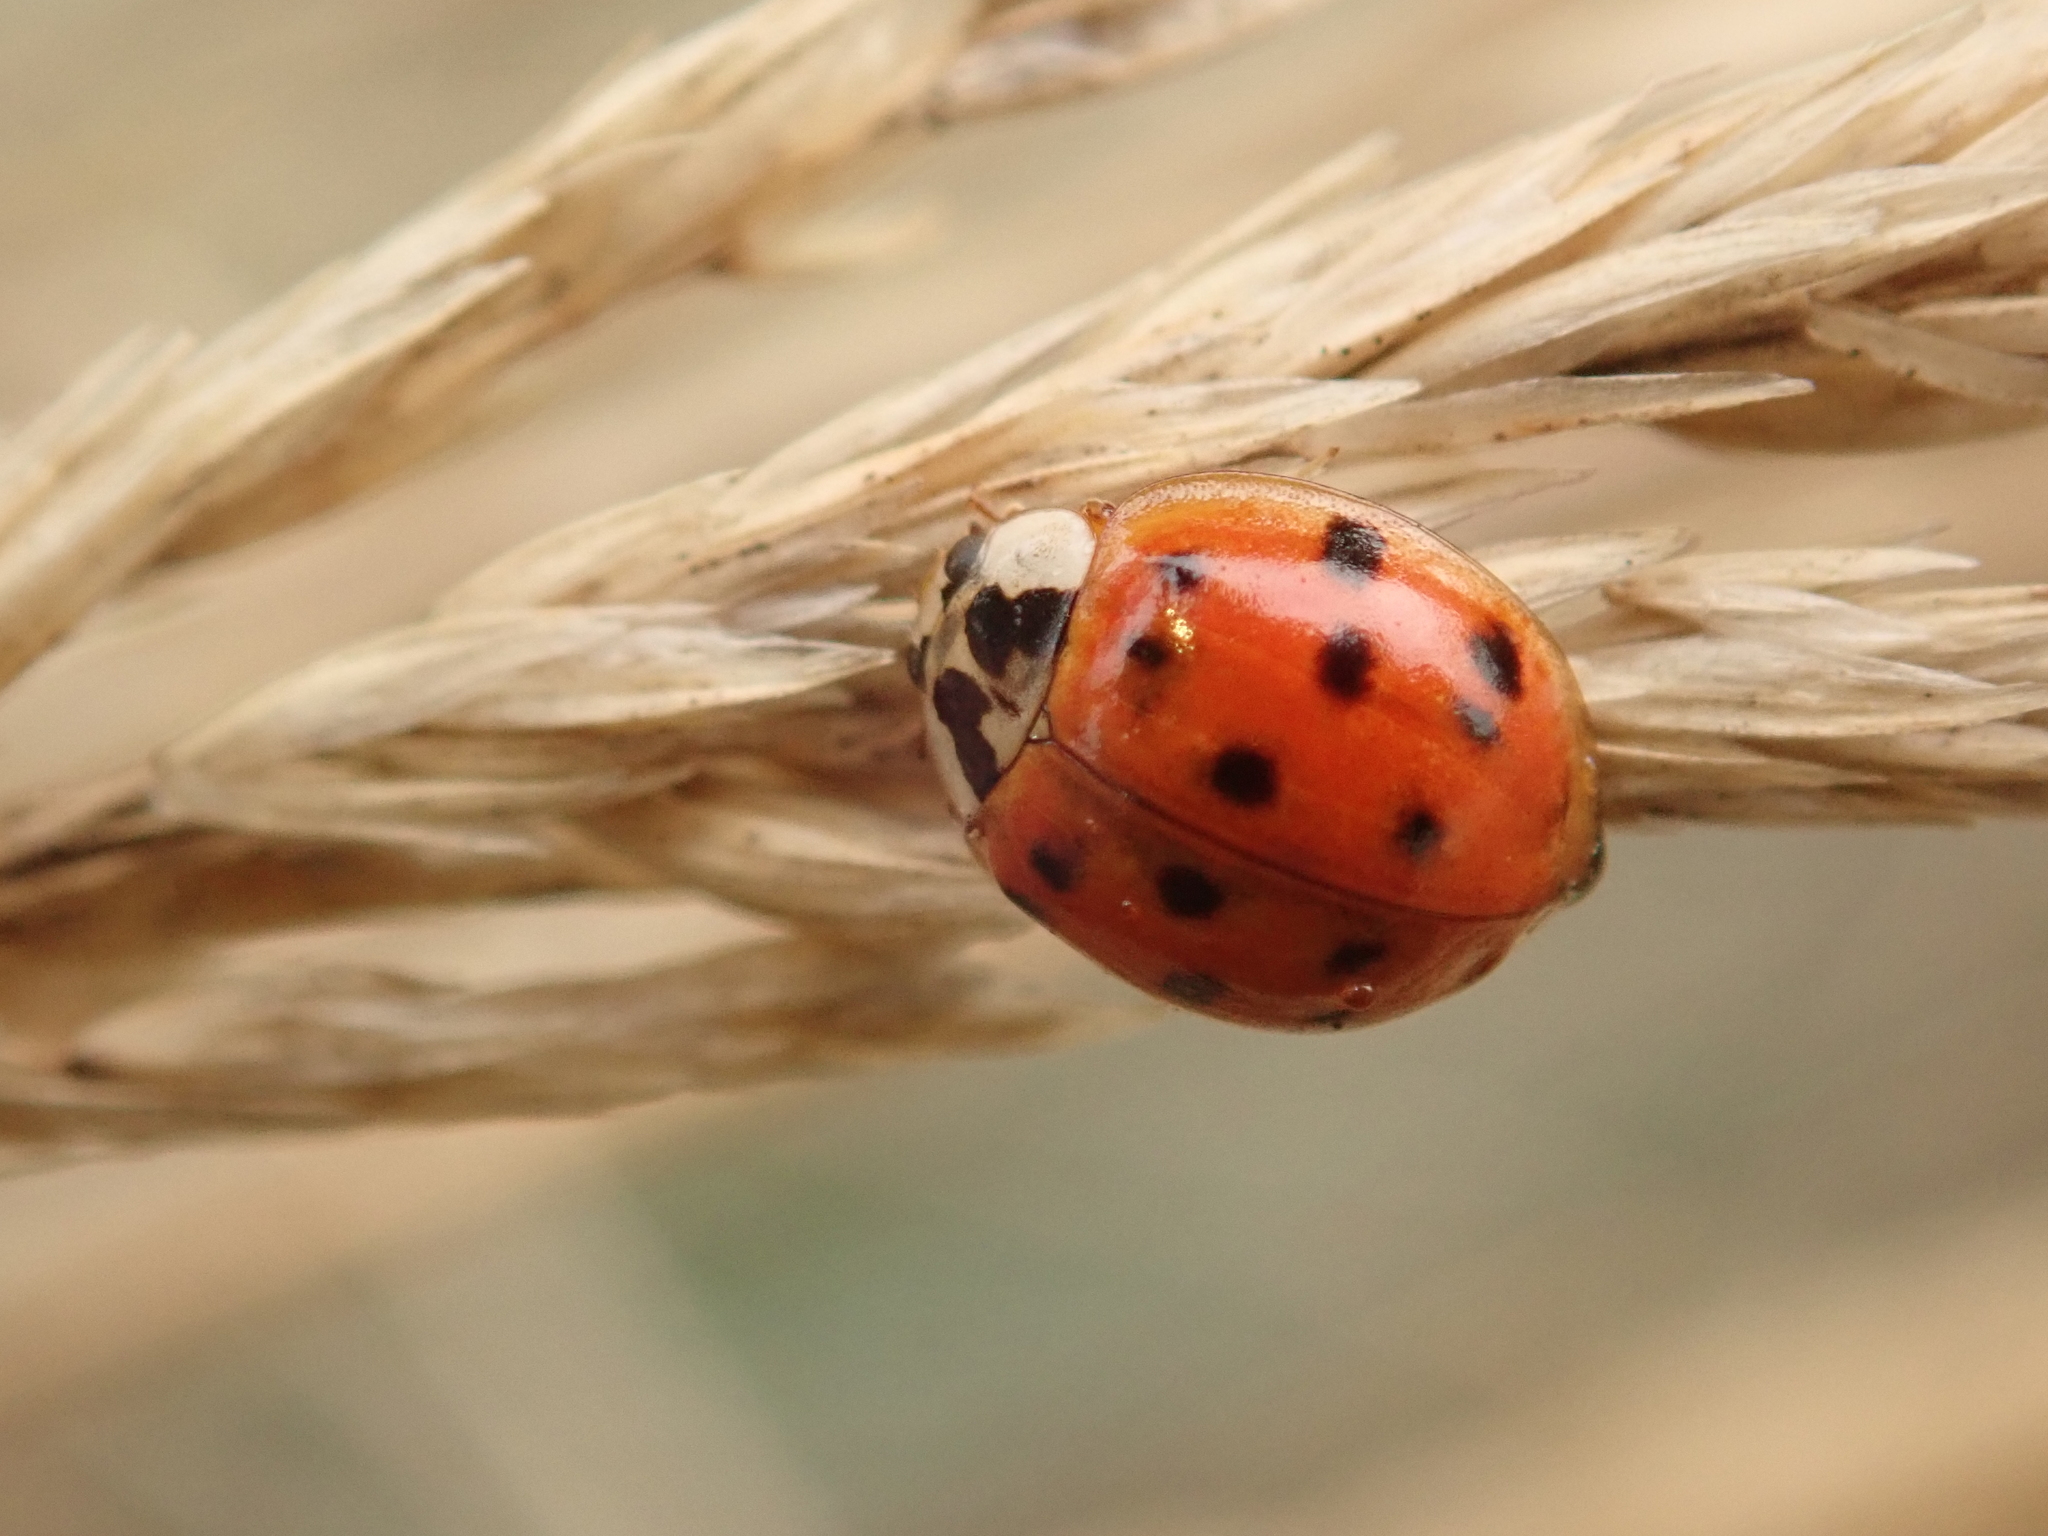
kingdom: Animalia
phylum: Arthropoda
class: Insecta
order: Coleoptera
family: Coccinellidae
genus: Harmonia
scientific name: Harmonia axyridis
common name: Harlequin ladybird
